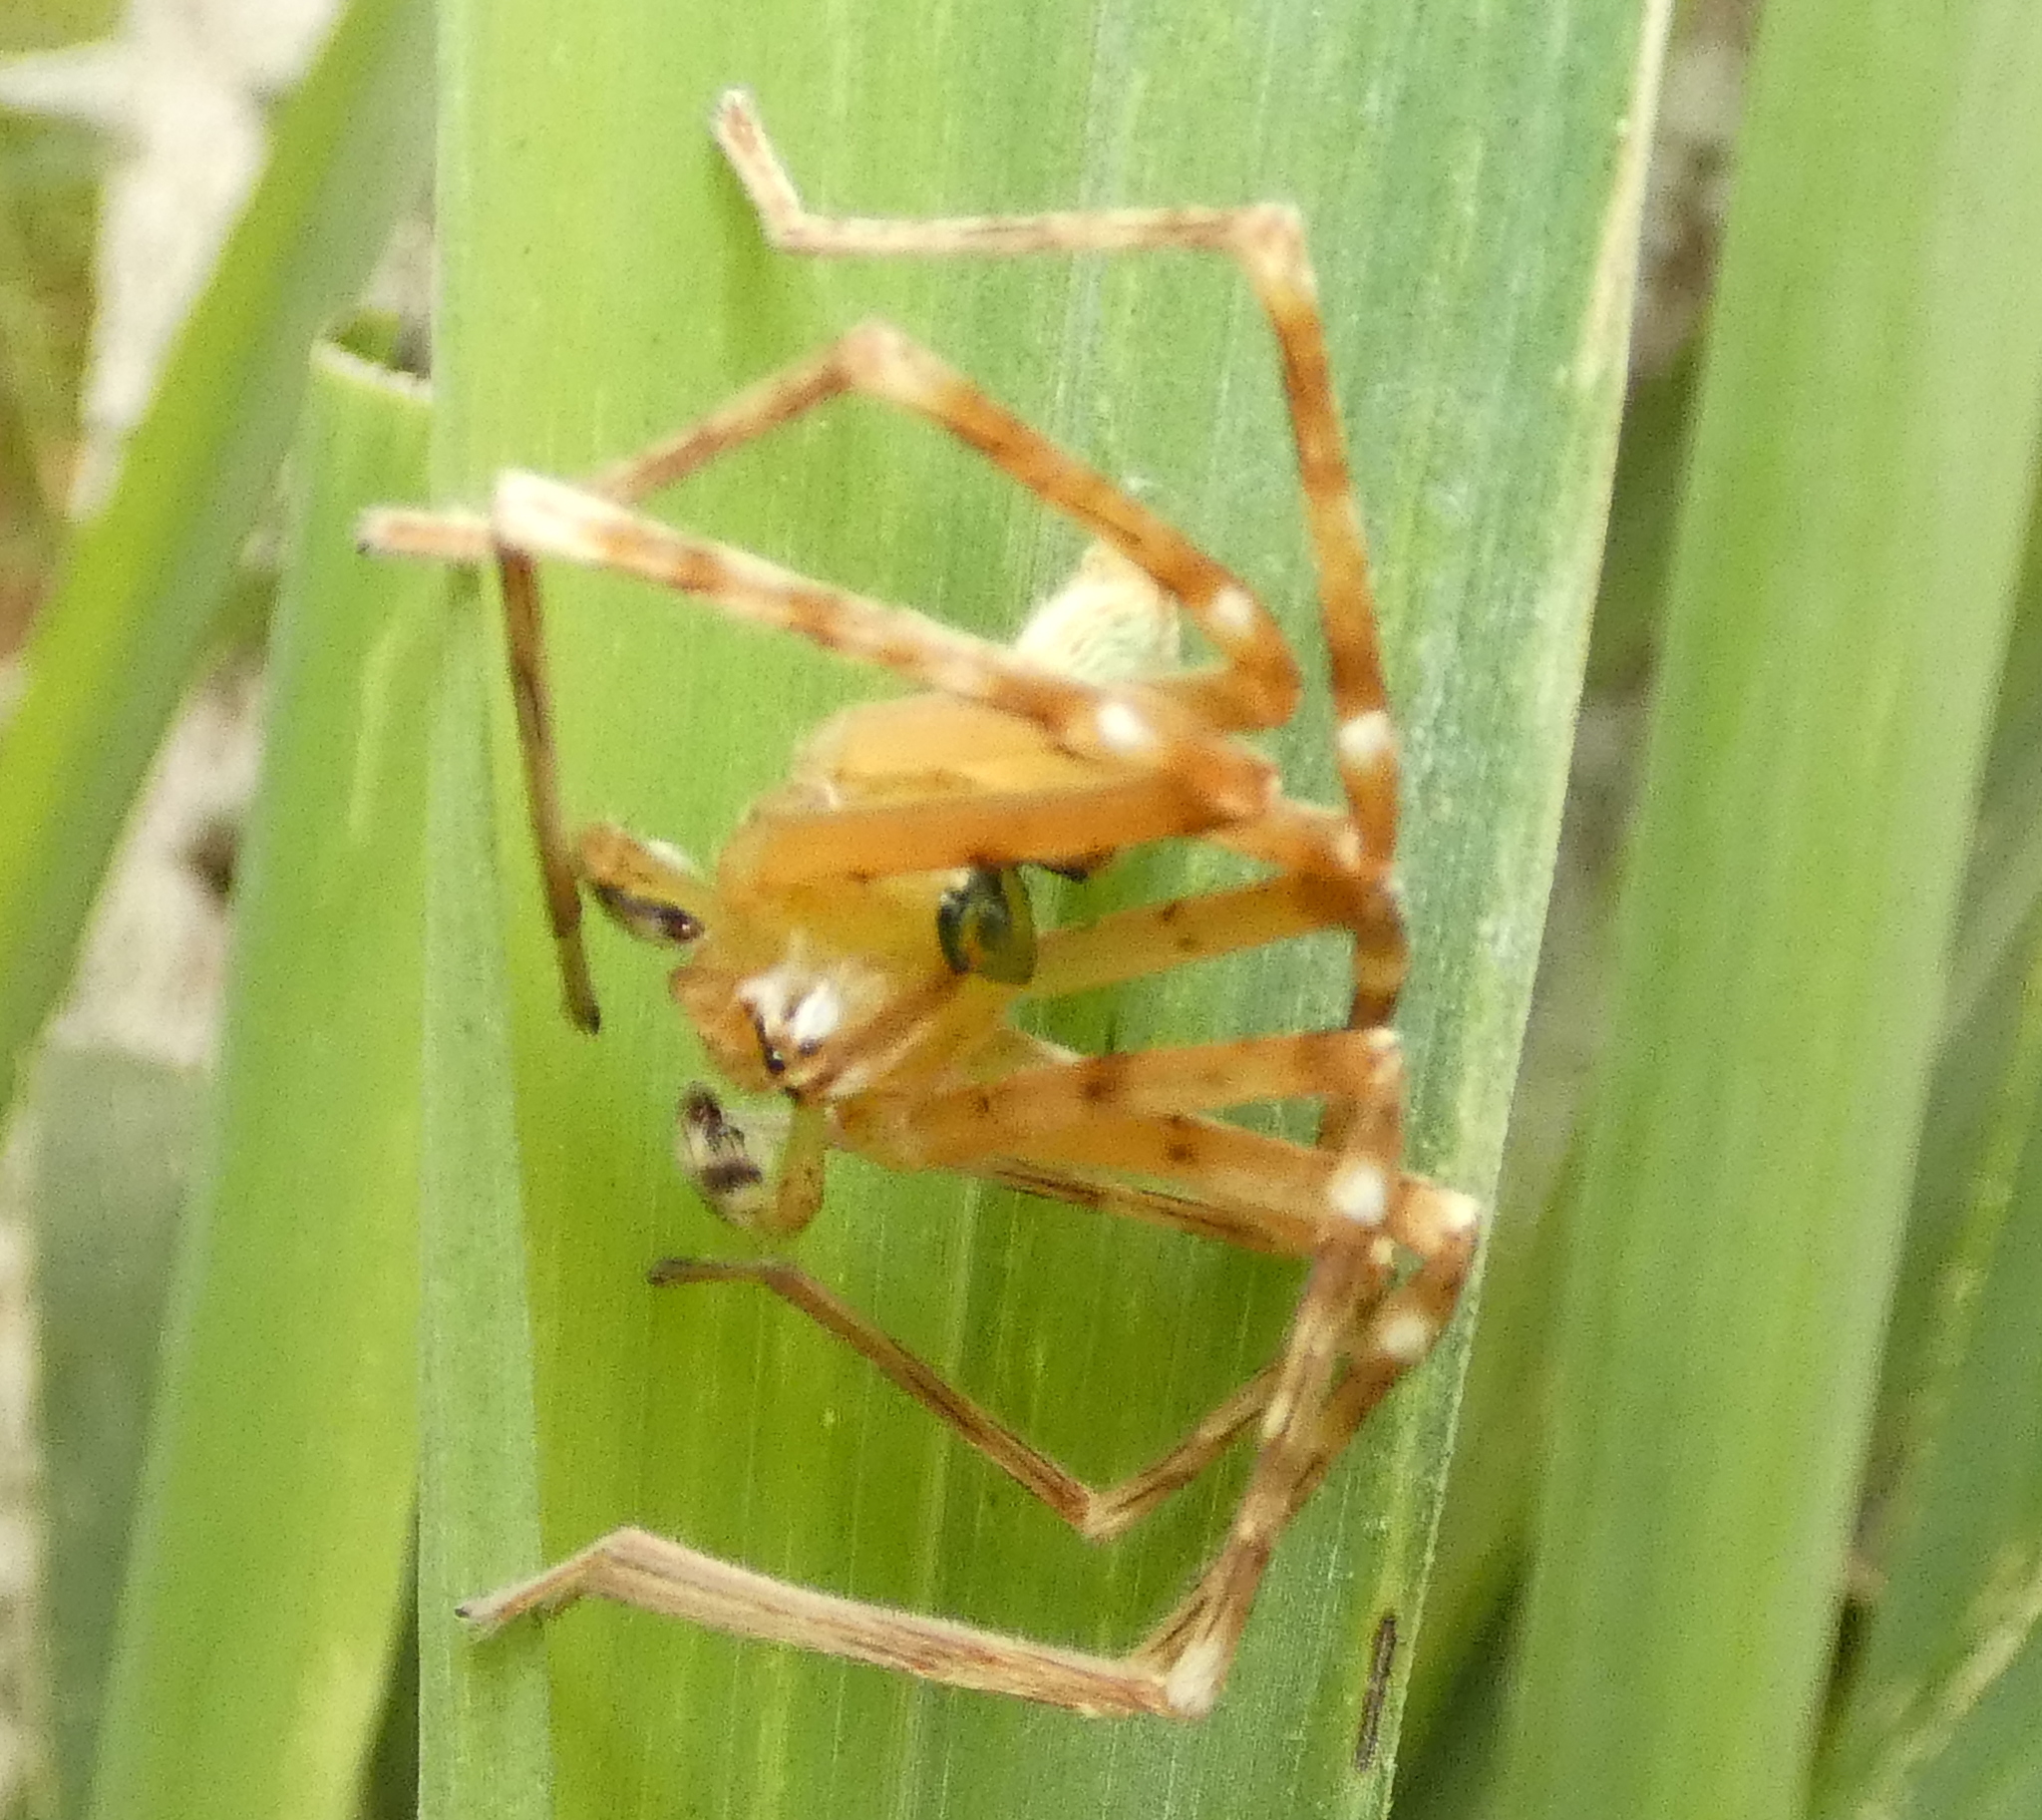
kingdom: Animalia
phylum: Arthropoda
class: Arachnida
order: Araneae
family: Sparassidae
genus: Macrinus
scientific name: Macrinus pollexensis
